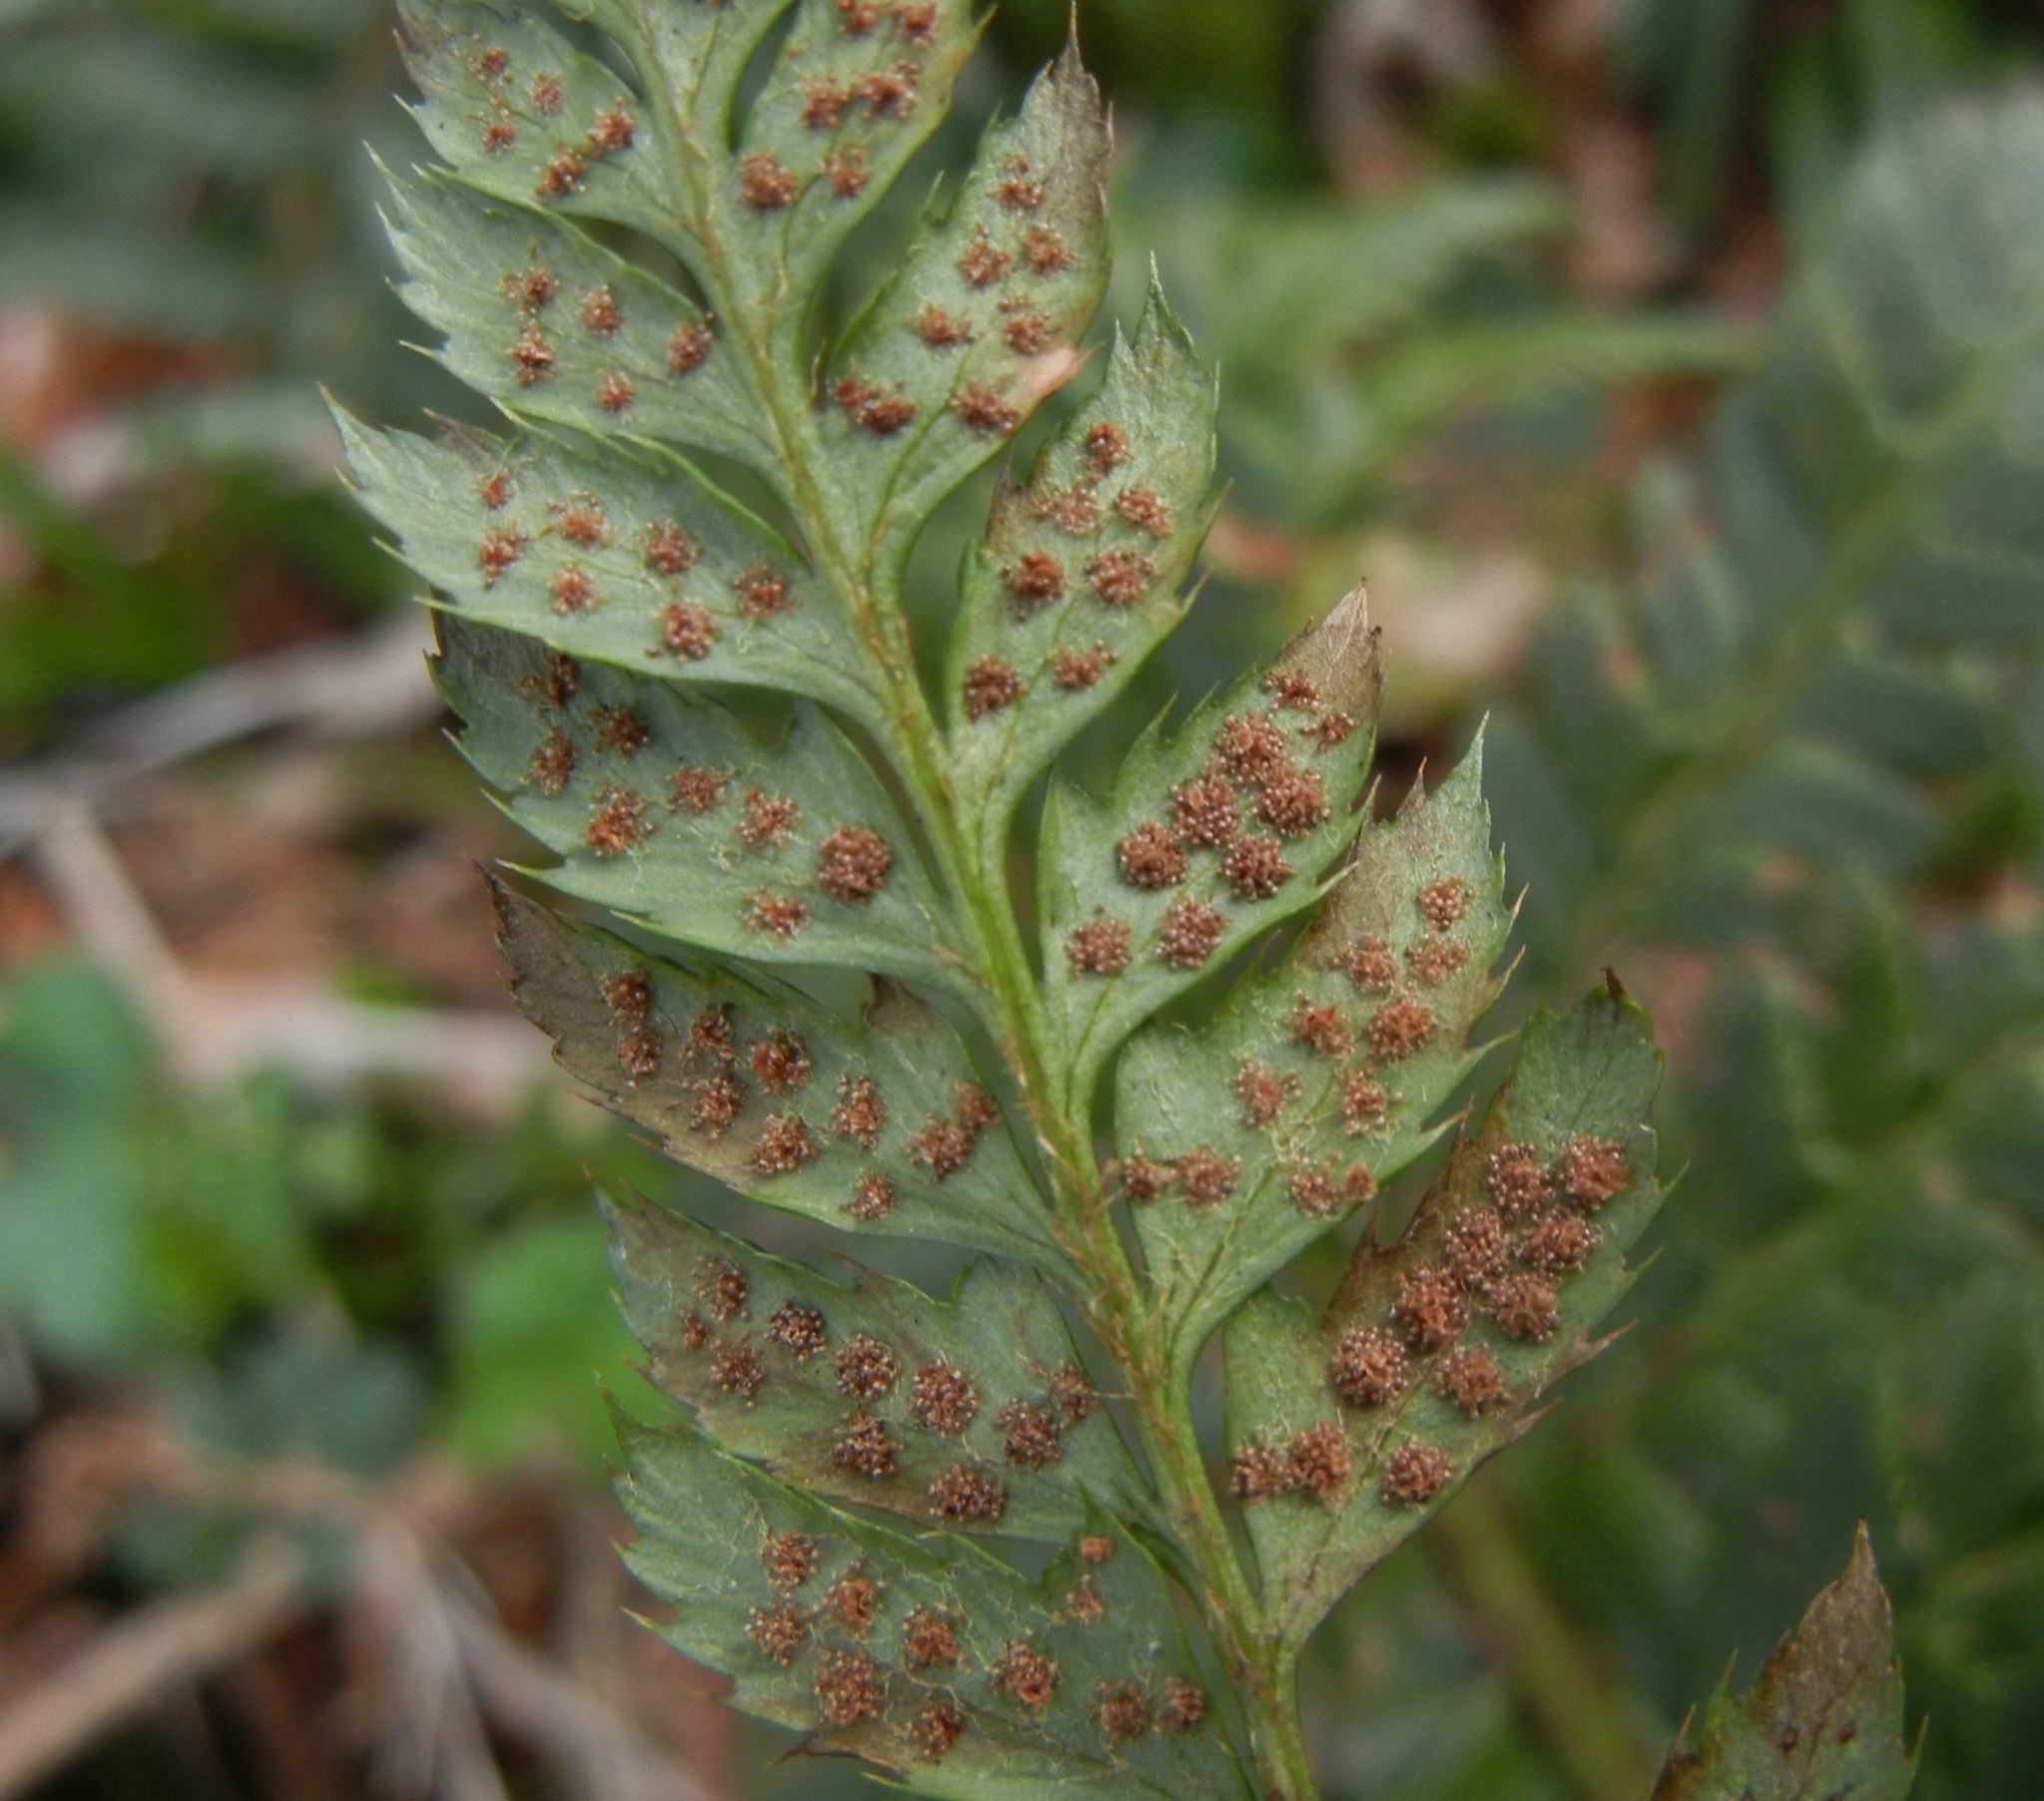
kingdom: Plantae
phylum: Tracheophyta
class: Polypodiopsida
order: Polypodiales
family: Dryopteridaceae
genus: Polystichum
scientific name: Polystichum aculeatum
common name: Hard shield-fern
